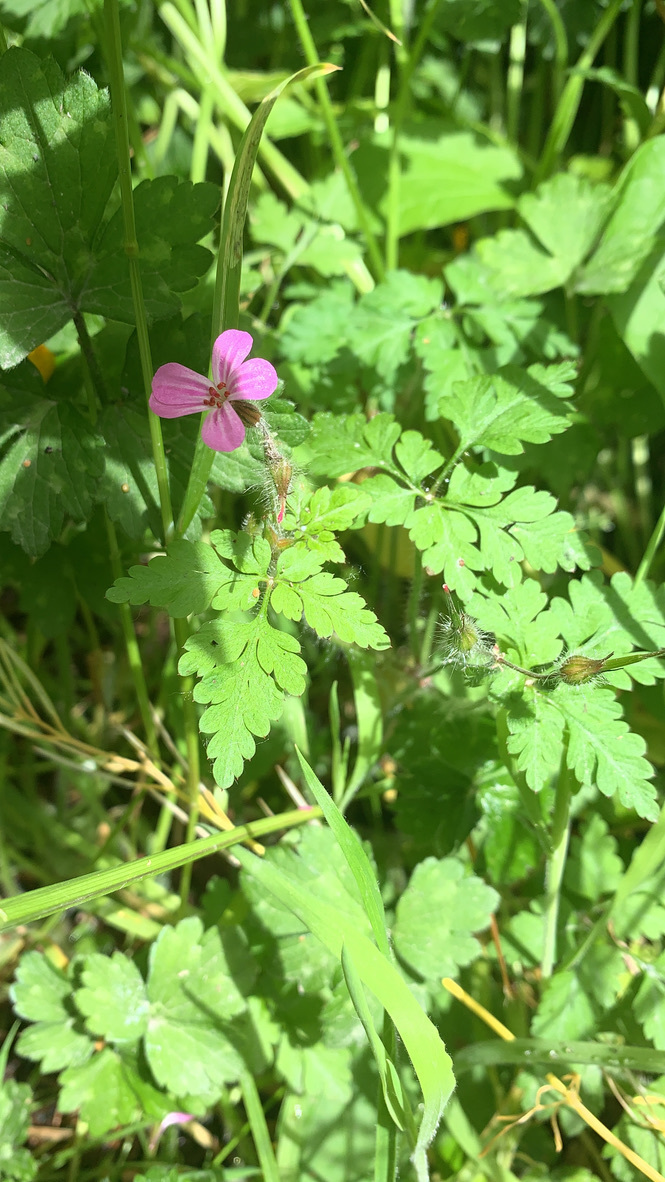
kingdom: Plantae
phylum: Tracheophyta
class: Magnoliopsida
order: Geraniales
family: Geraniaceae
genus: Geranium
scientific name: Geranium robertianum
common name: Herb-robert
